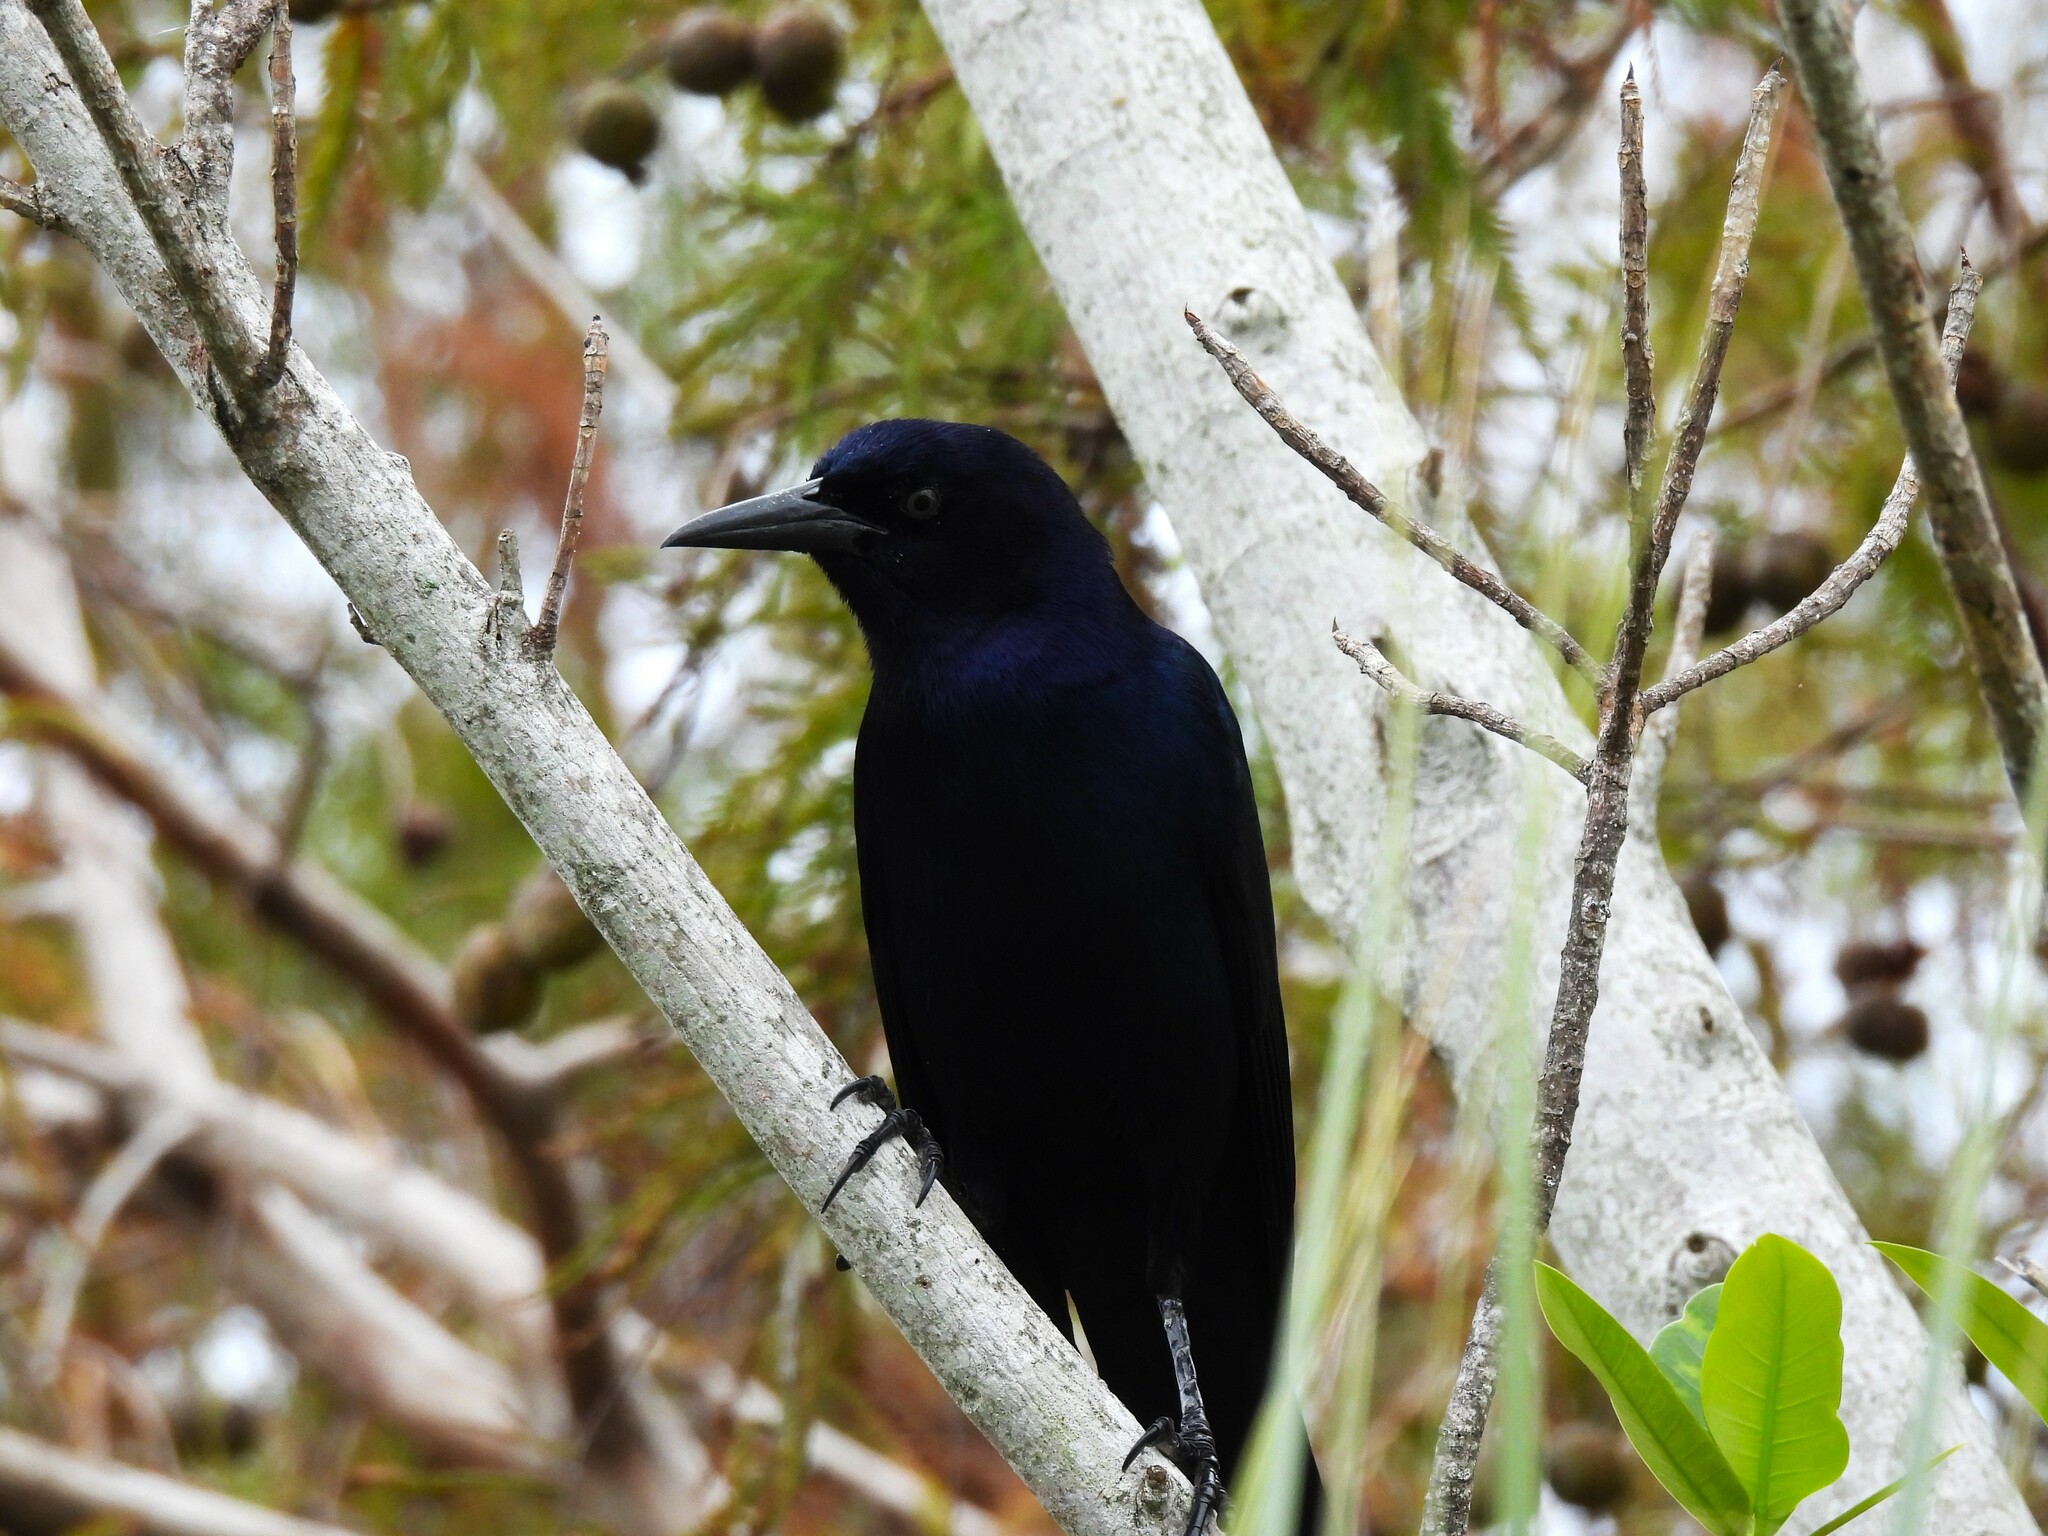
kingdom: Animalia
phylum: Chordata
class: Aves
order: Passeriformes
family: Icteridae
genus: Quiscalus
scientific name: Quiscalus major
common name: Boat-tailed grackle
